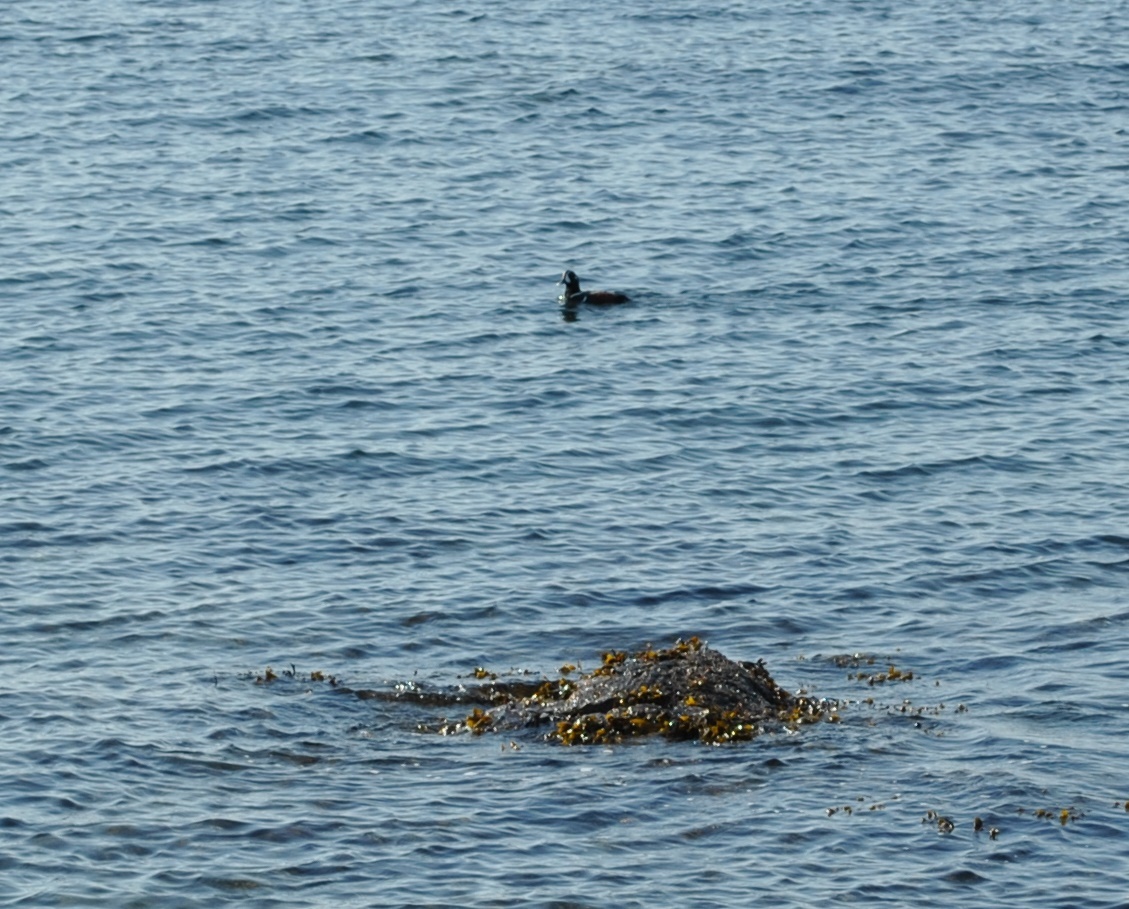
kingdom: Animalia
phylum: Chordata
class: Aves
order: Anseriformes
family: Anatidae
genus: Histrionicus
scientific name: Histrionicus histrionicus
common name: Harlequin duck
